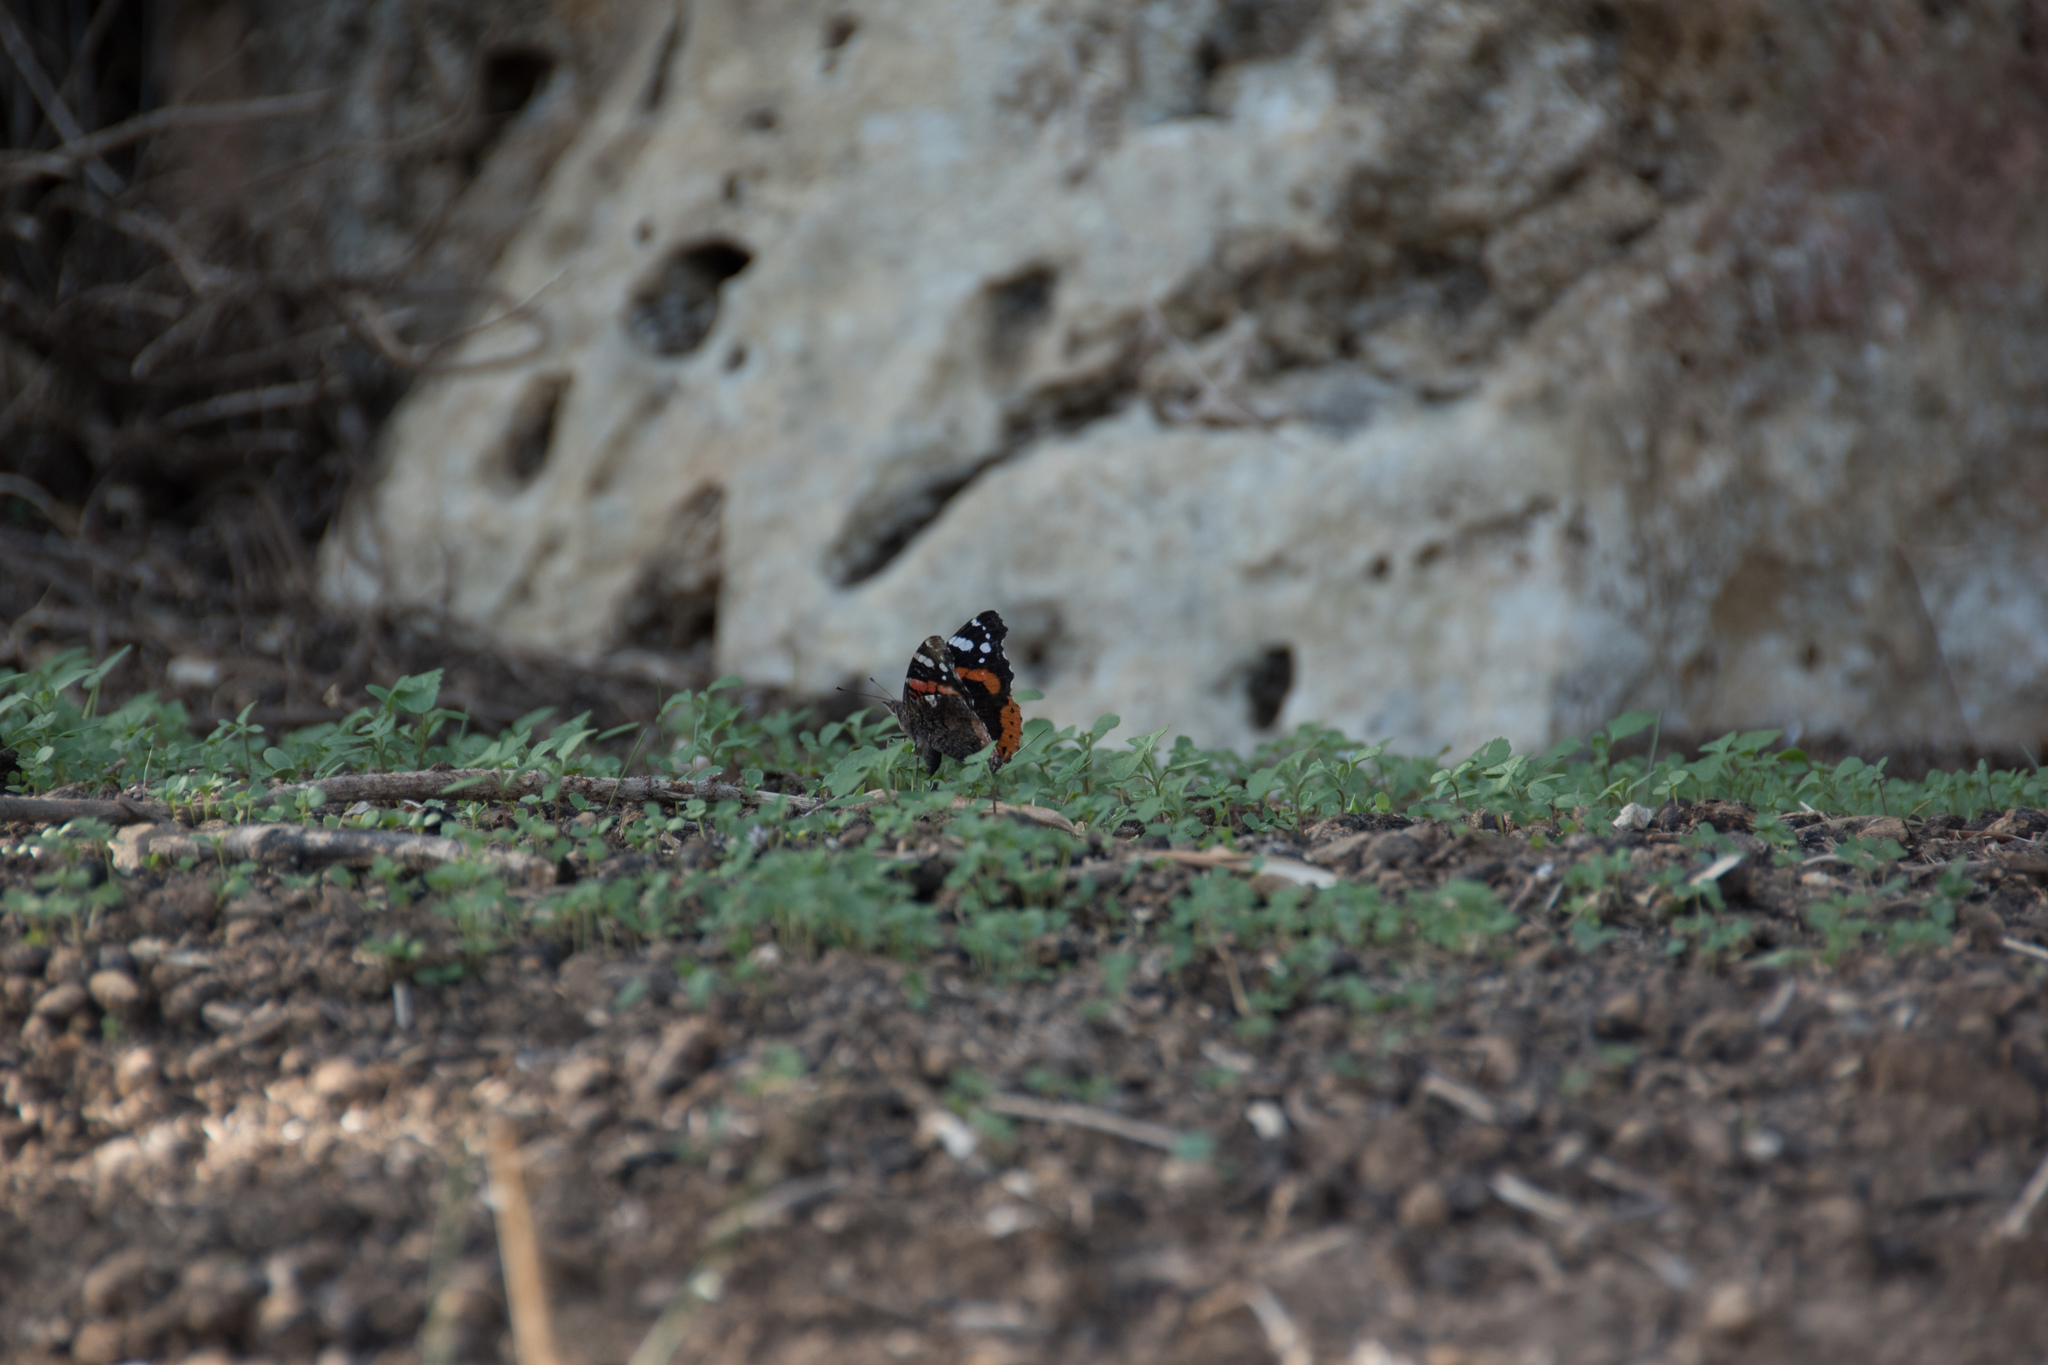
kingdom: Animalia
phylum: Arthropoda
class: Insecta
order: Lepidoptera
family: Nymphalidae
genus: Vanessa
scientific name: Vanessa atalanta
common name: Red admiral
